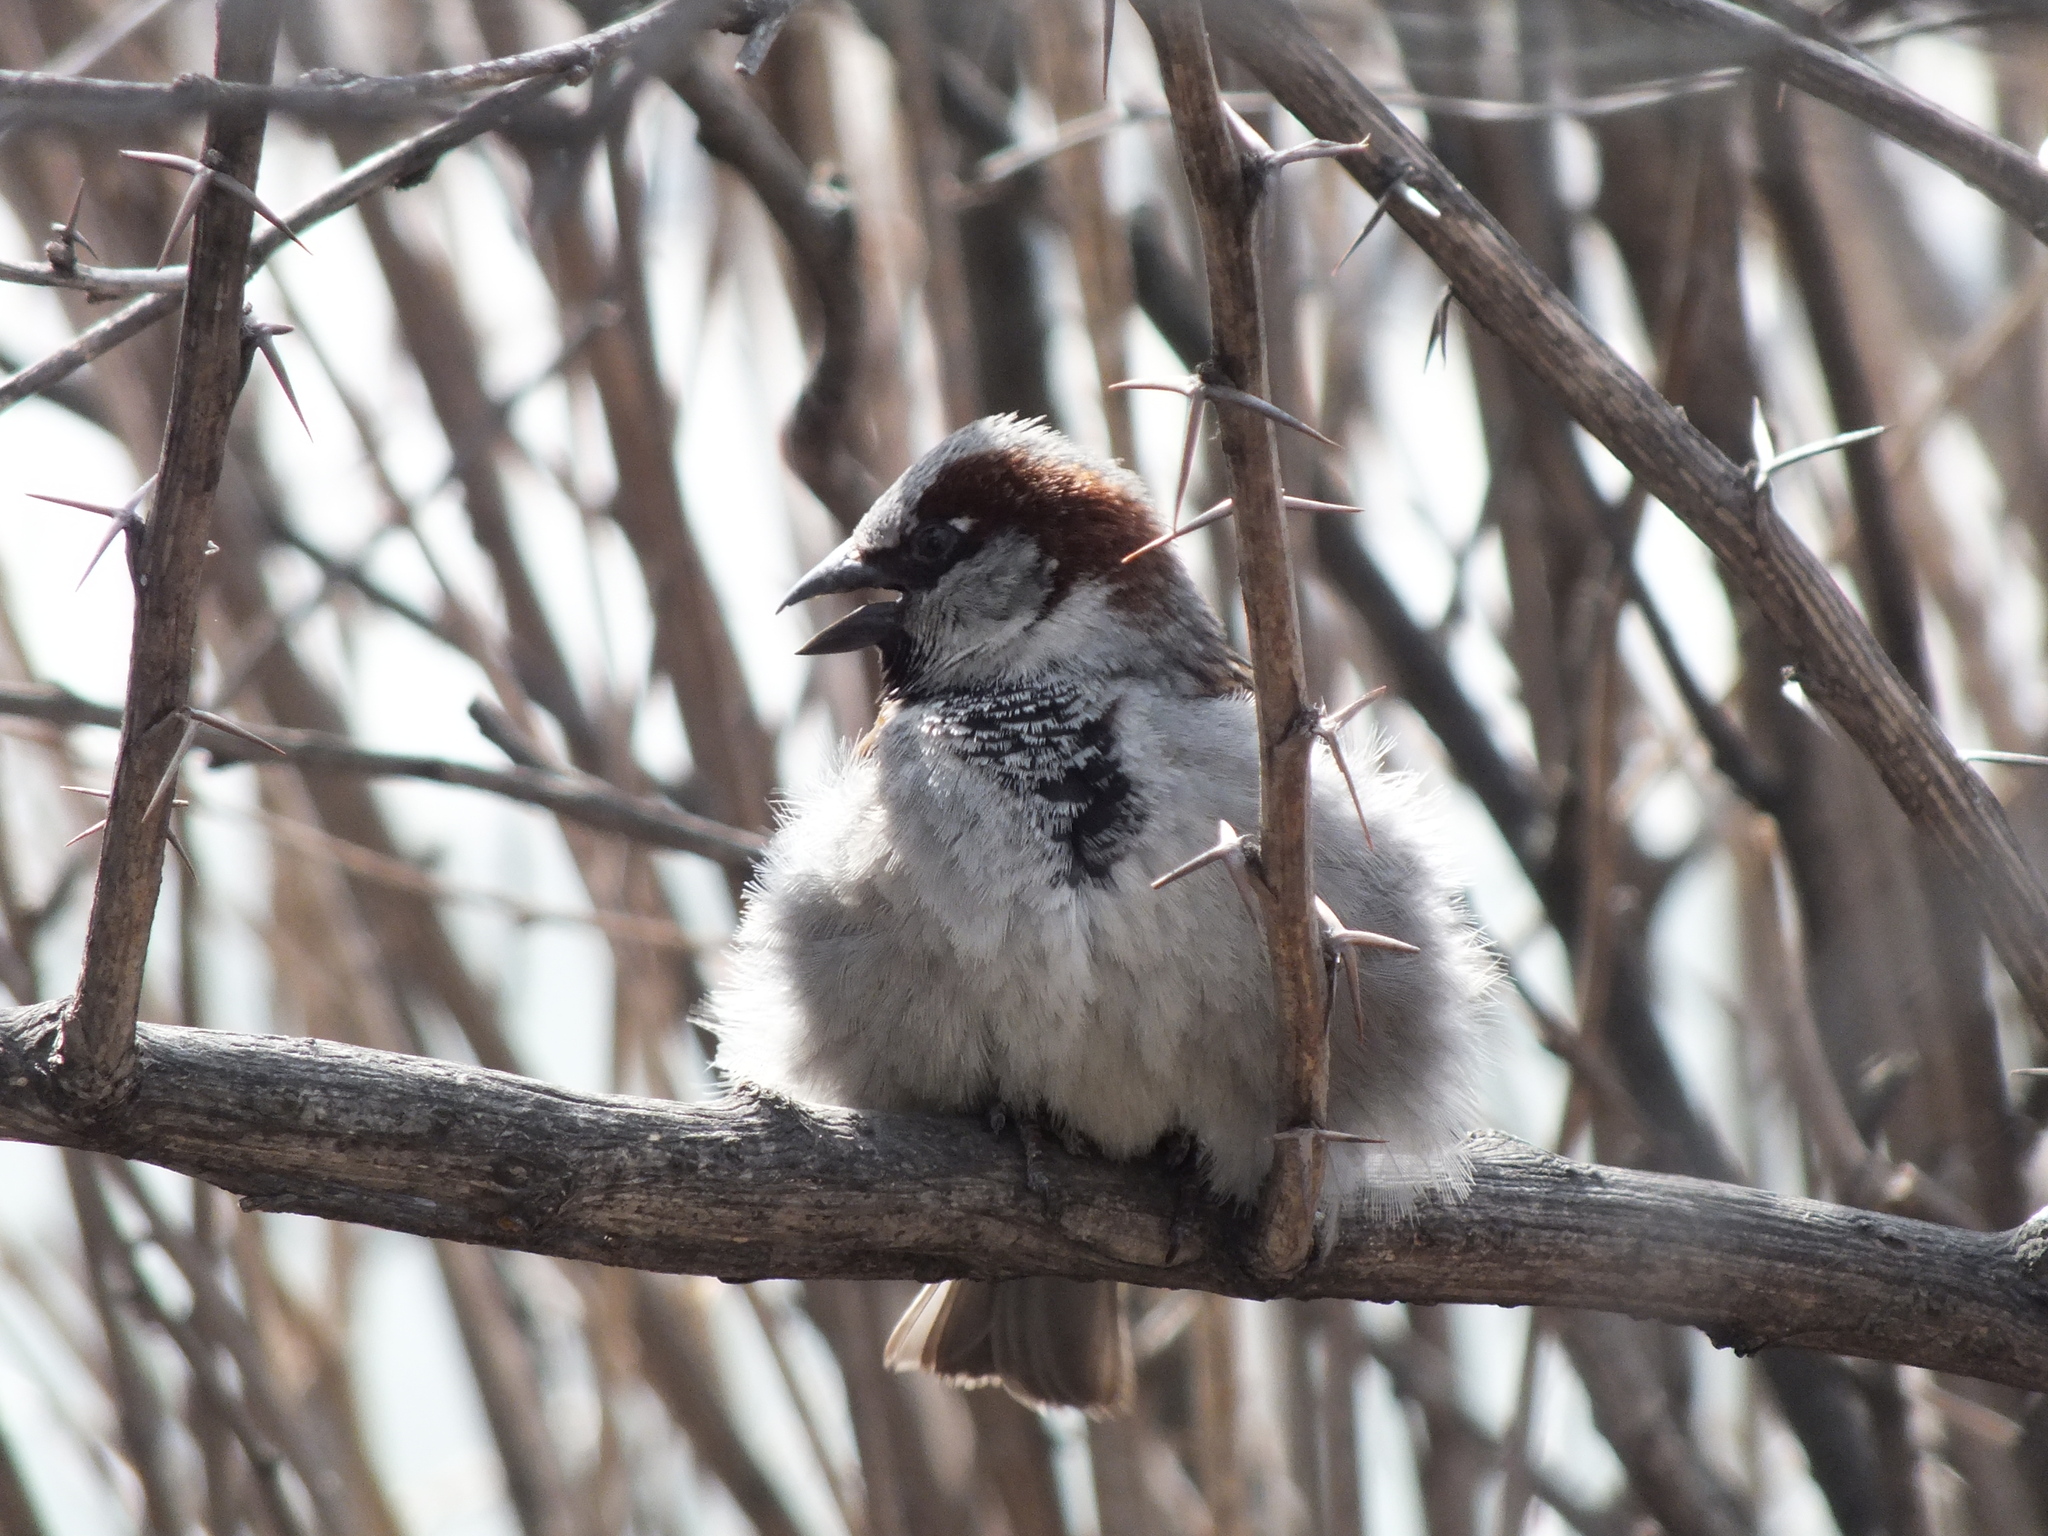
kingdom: Animalia
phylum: Chordata
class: Aves
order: Passeriformes
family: Passeridae
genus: Passer
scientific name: Passer domesticus
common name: House sparrow
